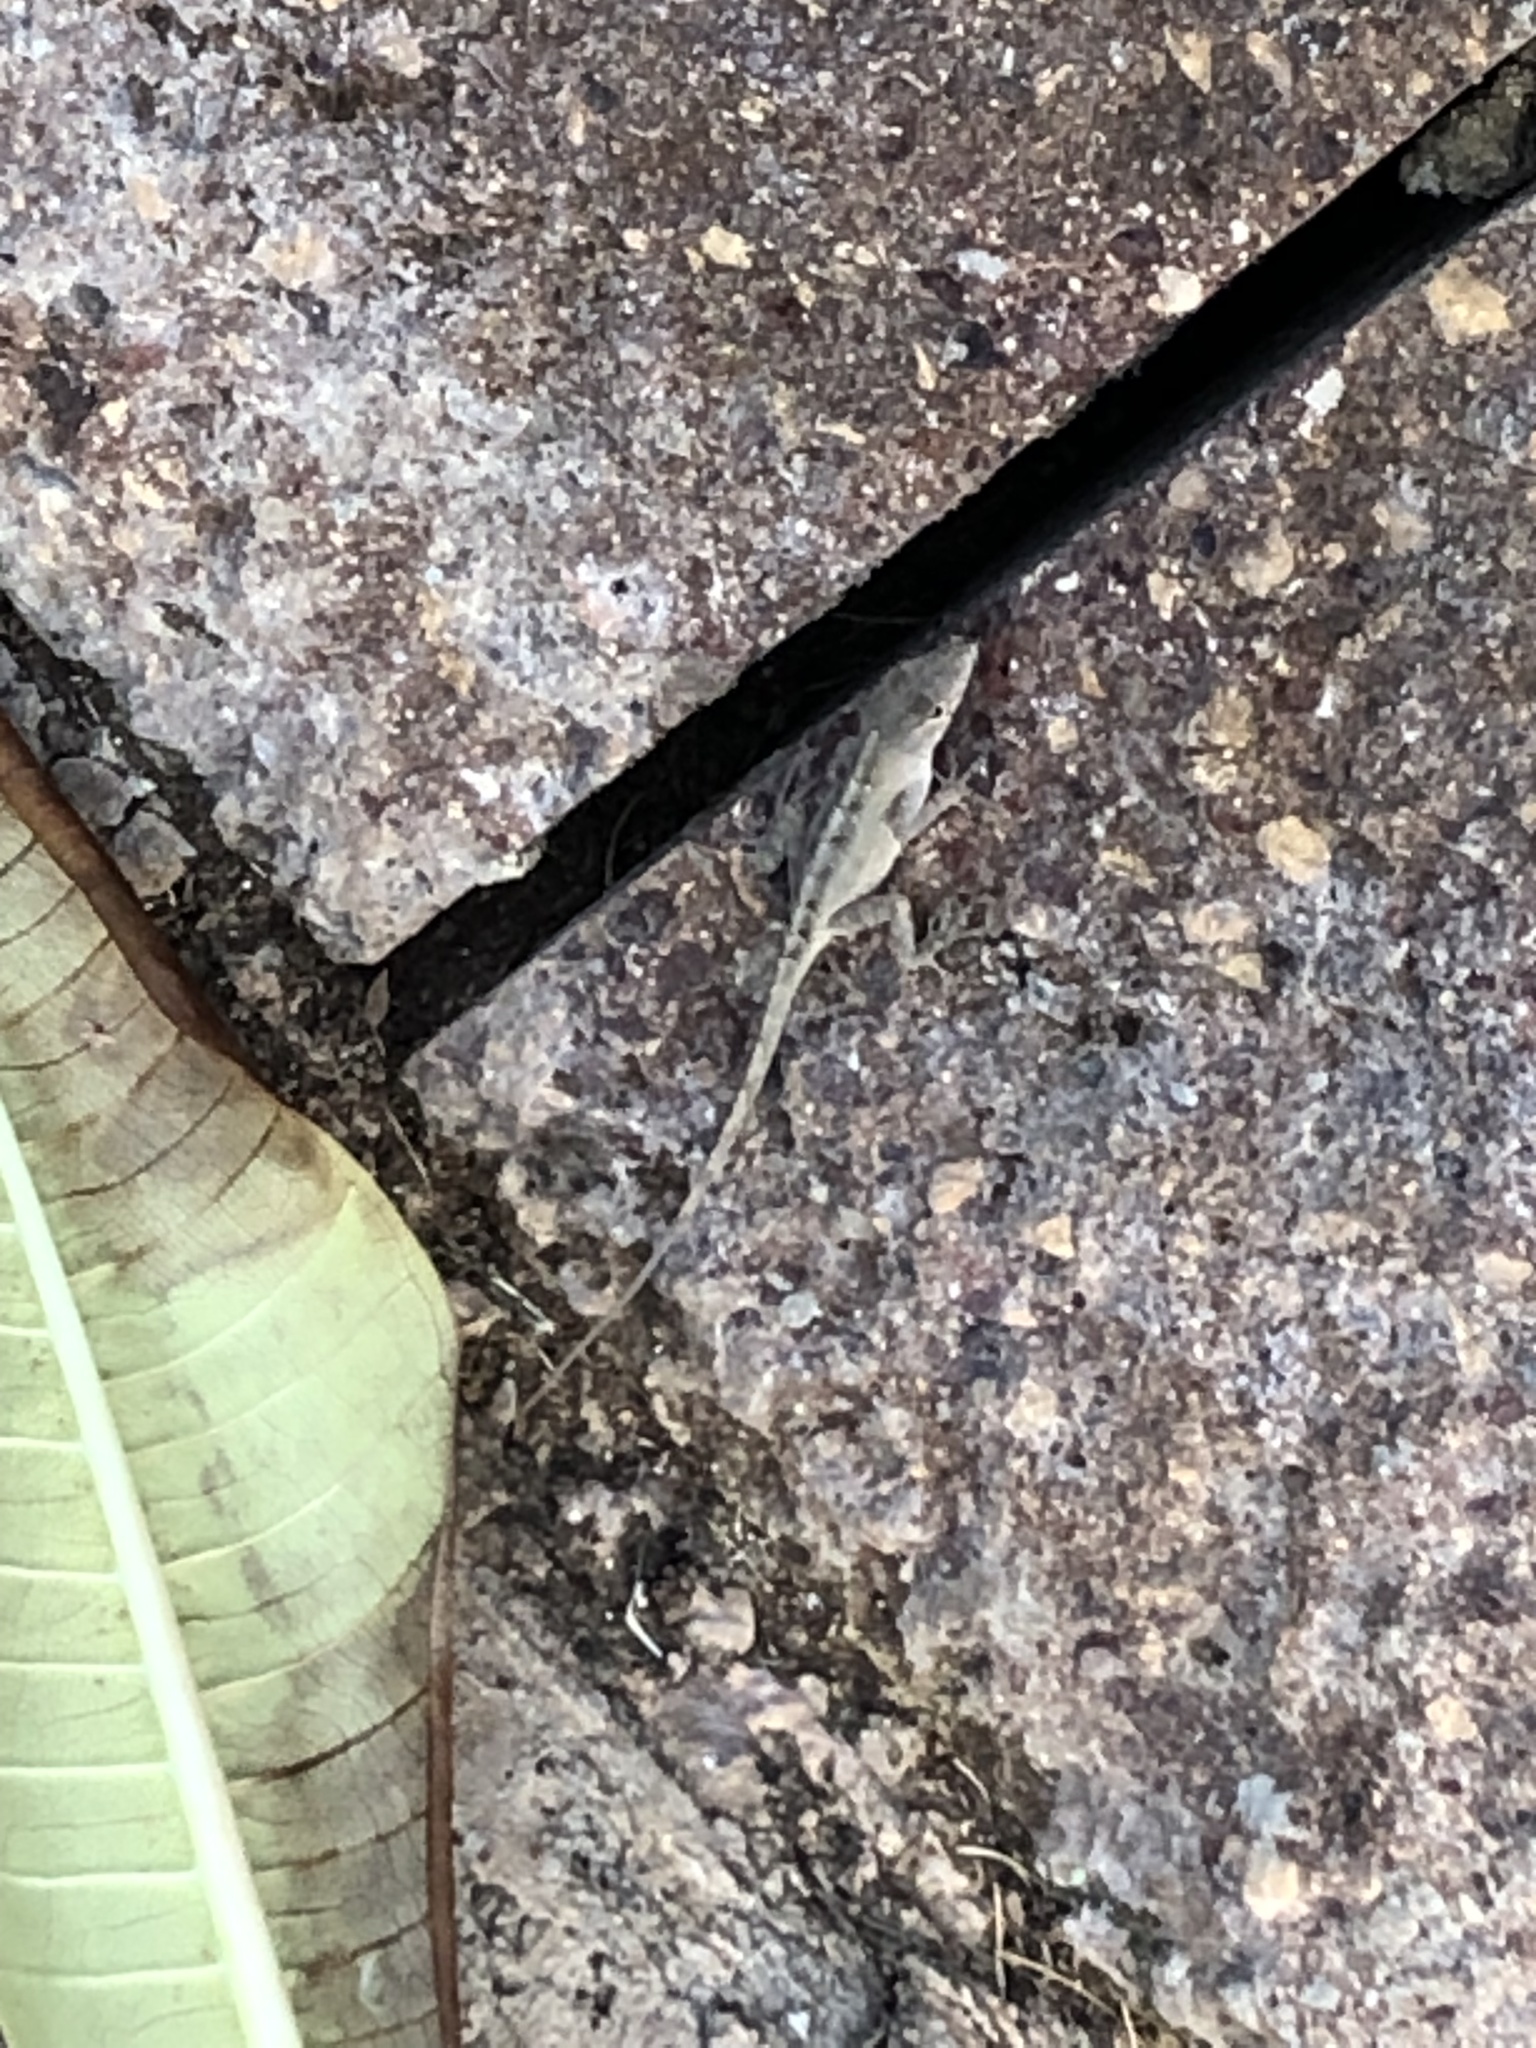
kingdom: Animalia
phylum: Chordata
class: Squamata
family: Dactyloidae
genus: Anolis
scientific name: Anolis sagrei
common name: Brown anole
